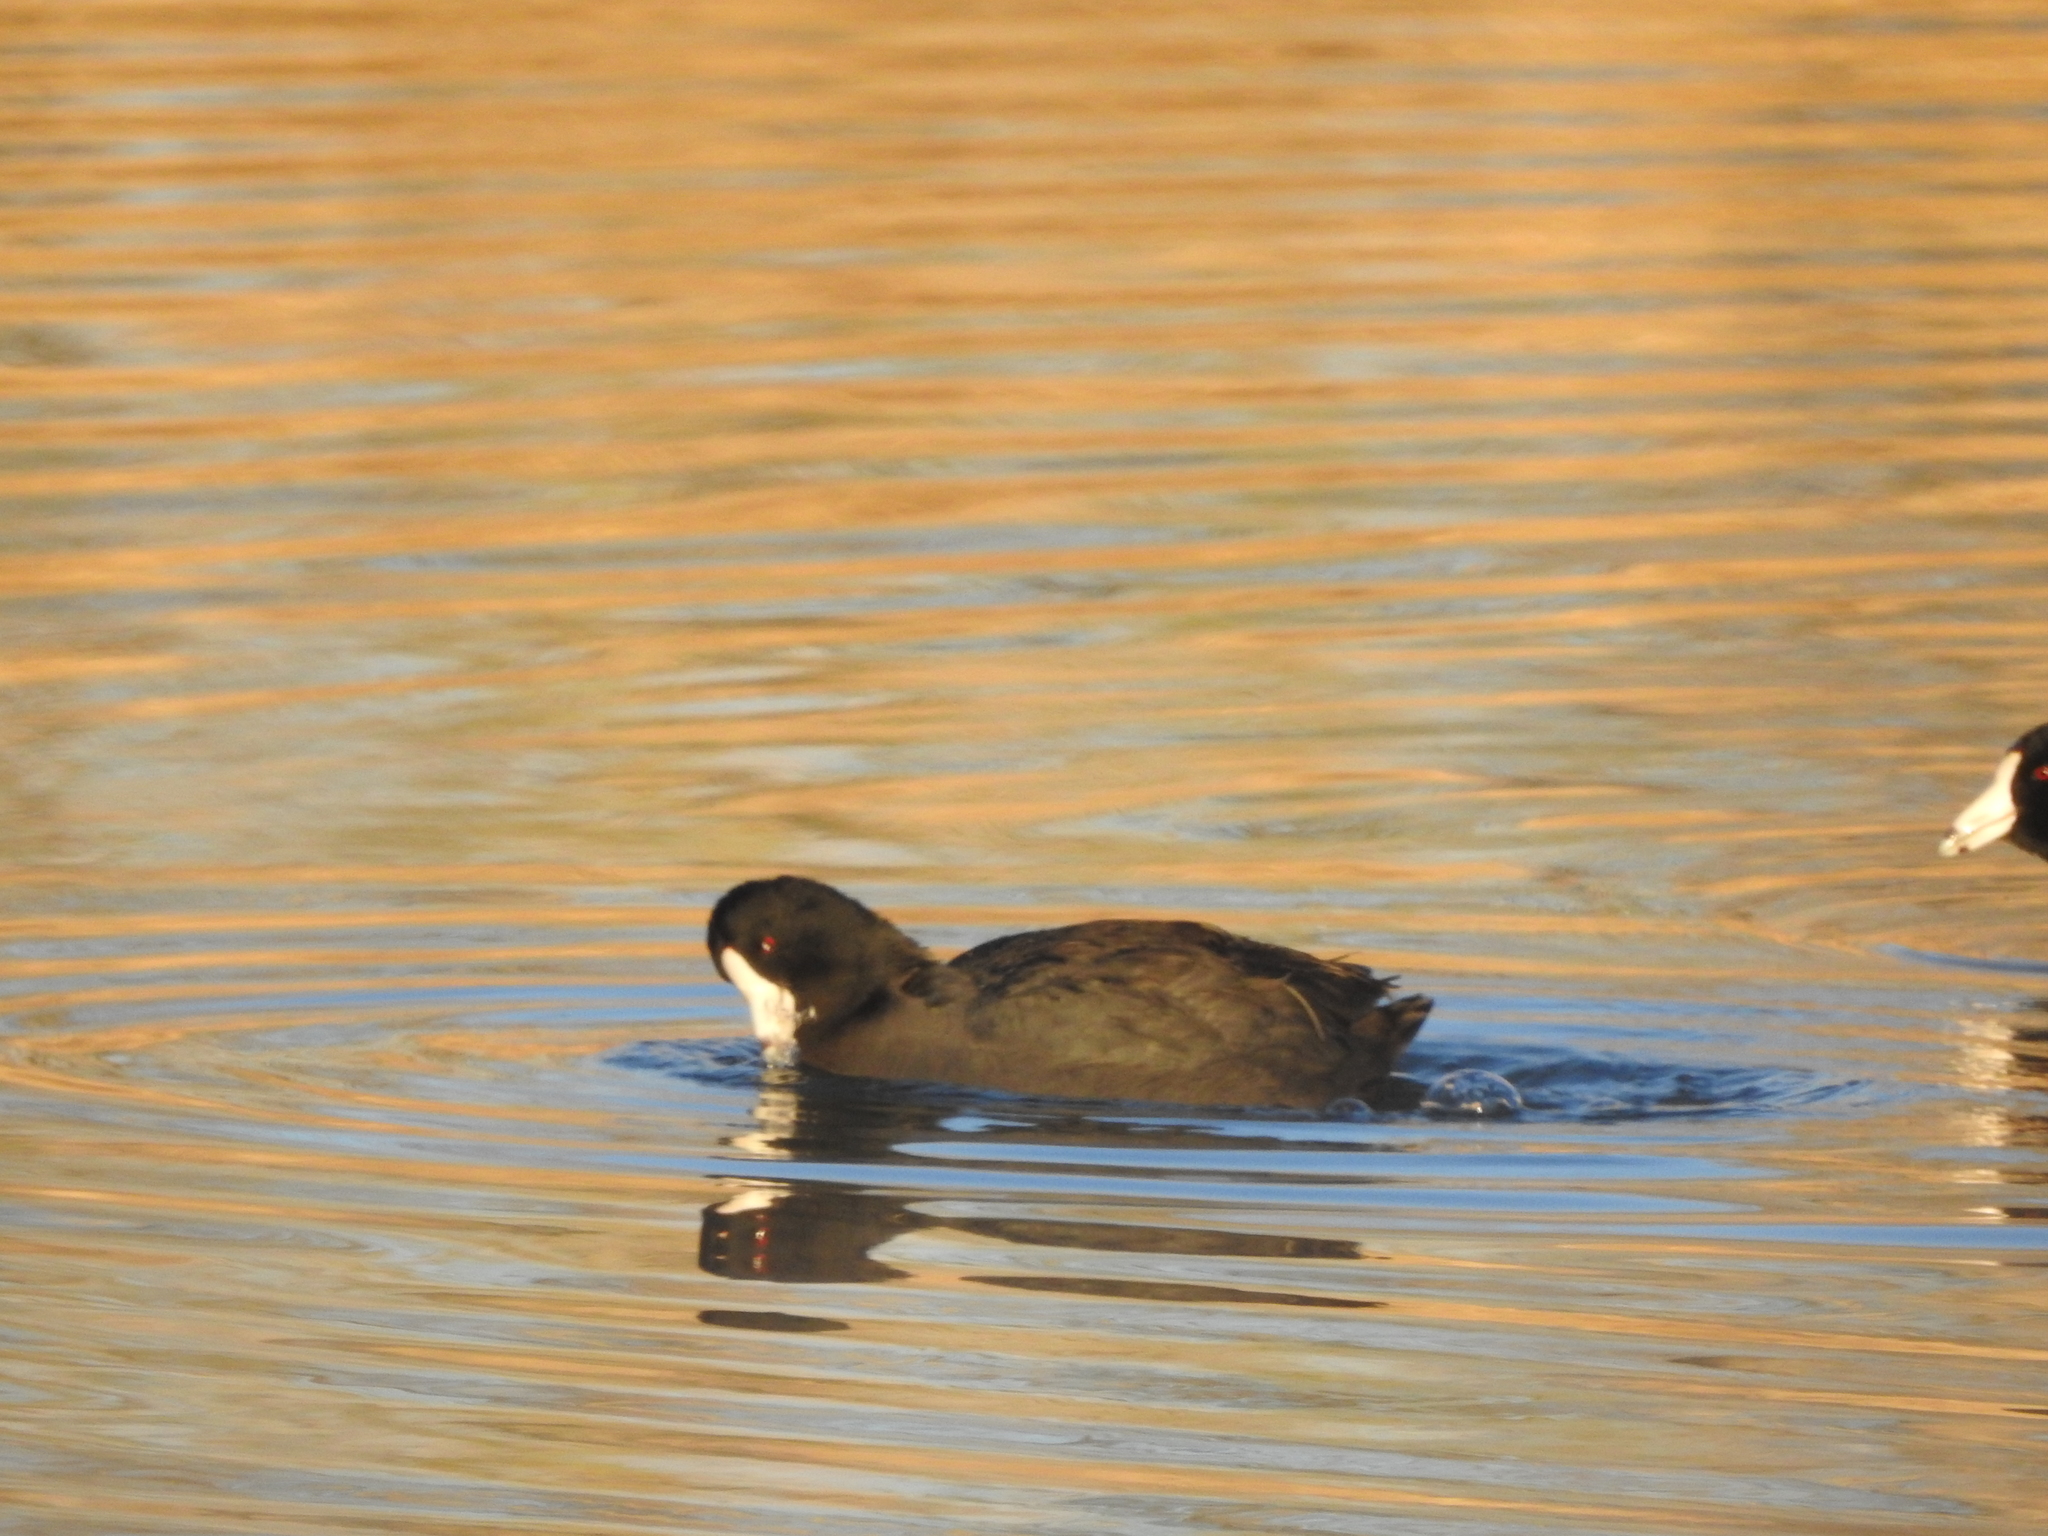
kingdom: Animalia
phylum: Chordata
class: Aves
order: Gruiformes
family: Rallidae
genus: Fulica
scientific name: Fulica americana
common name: American coot
